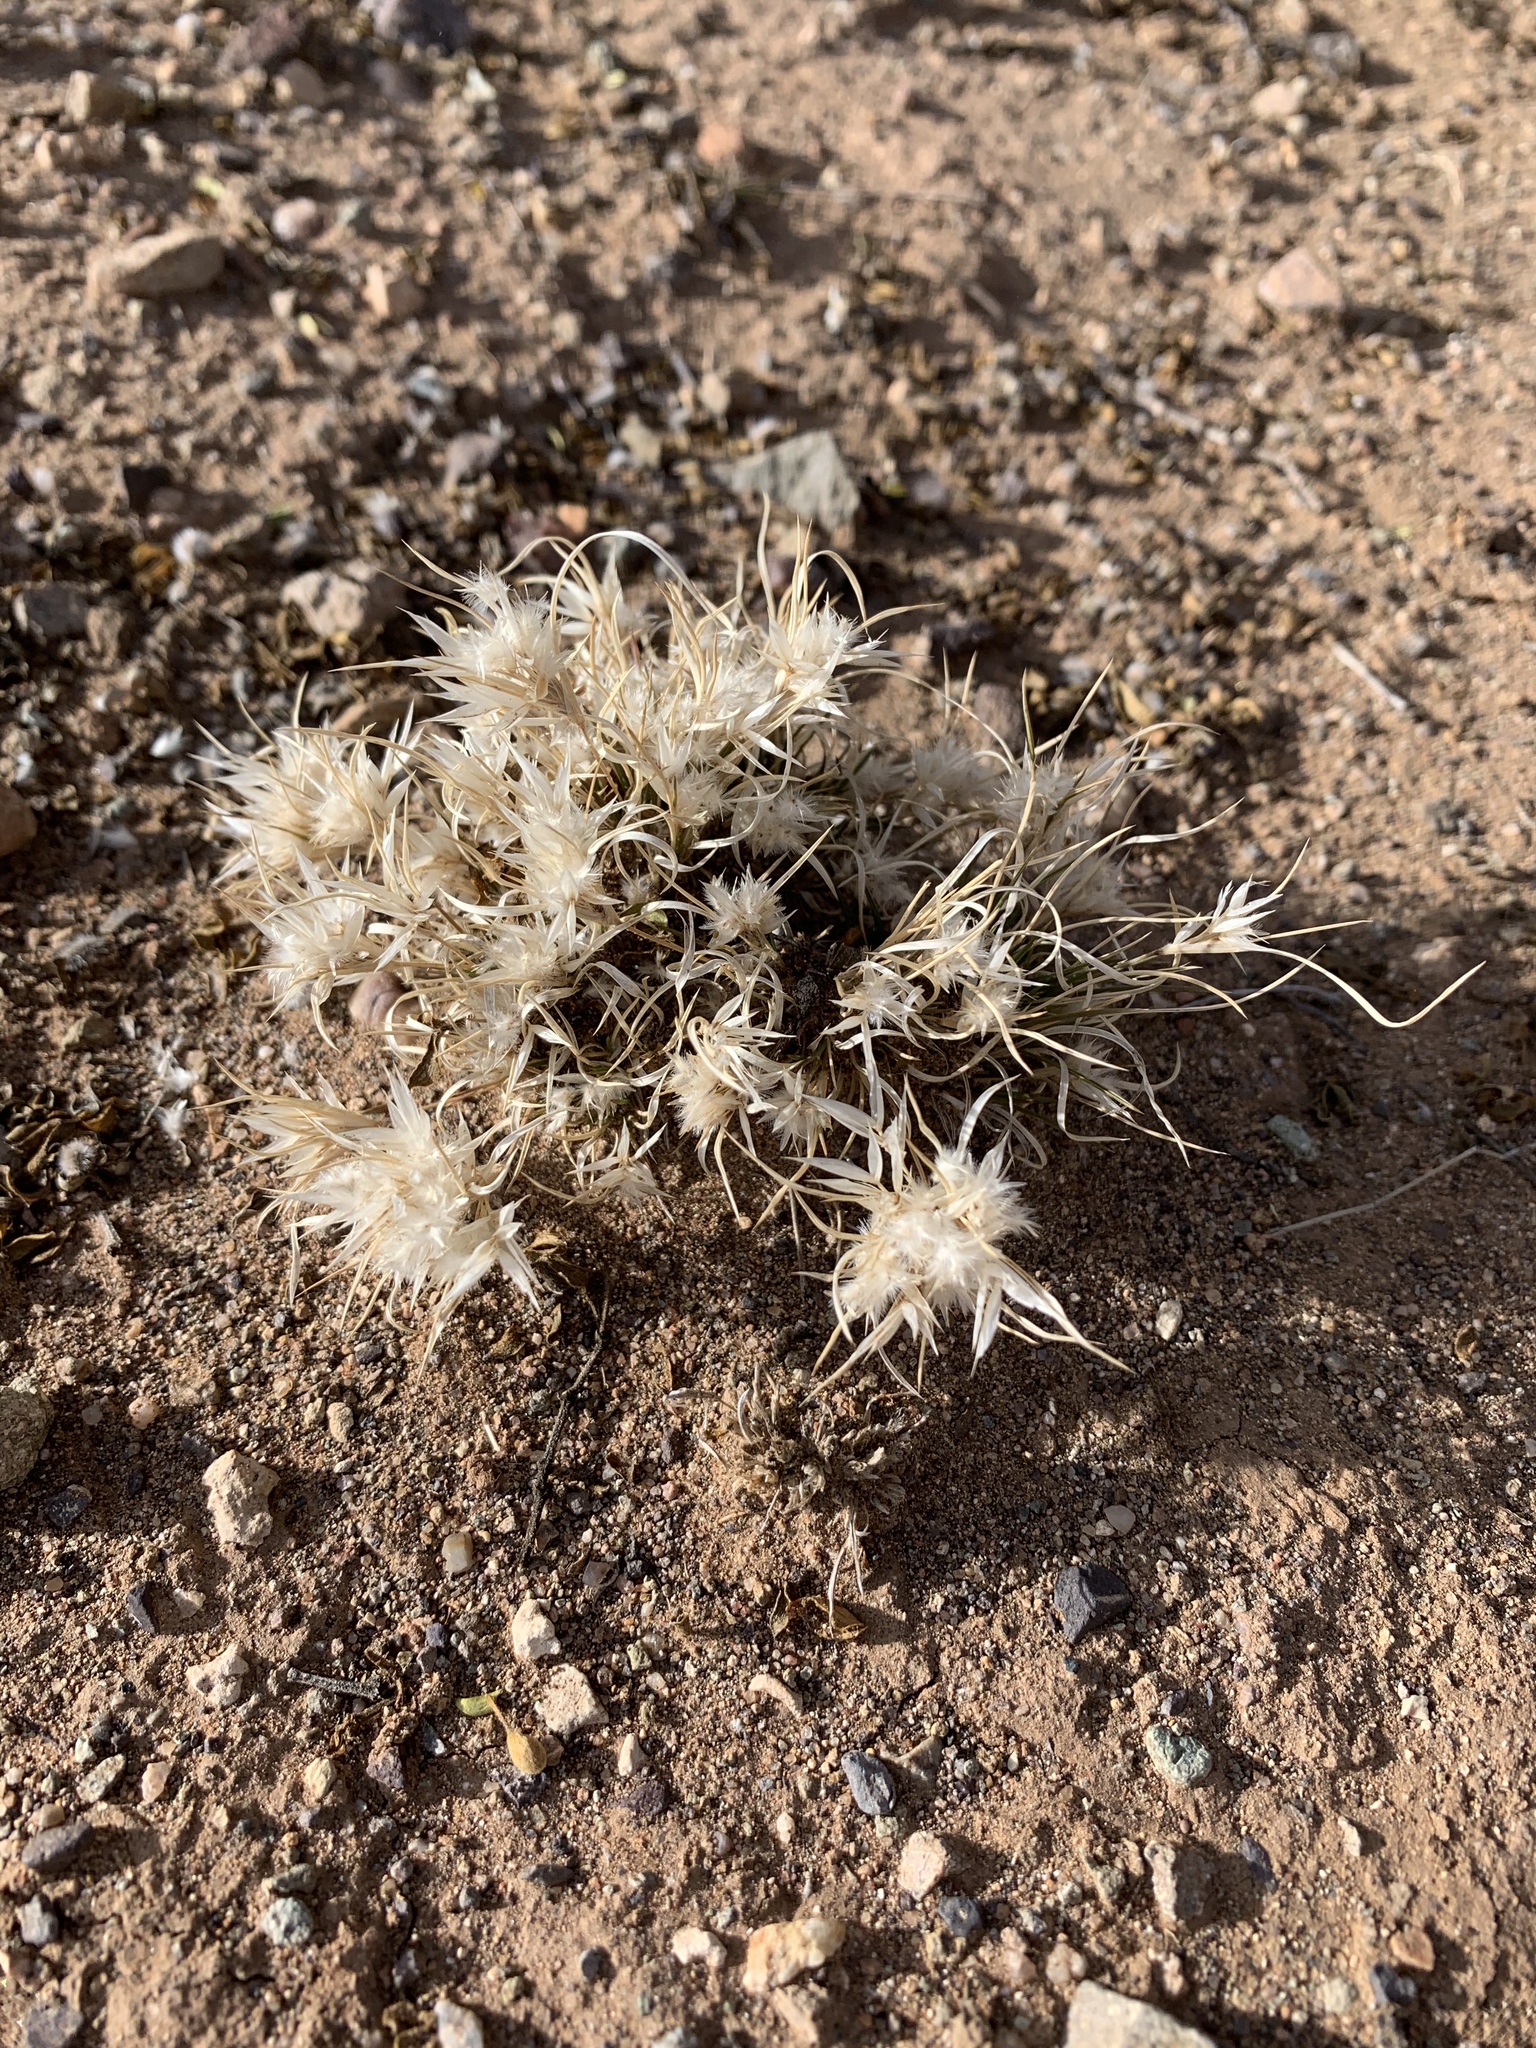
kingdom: Plantae
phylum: Tracheophyta
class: Liliopsida
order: Poales
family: Poaceae
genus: Dasyochloa
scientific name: Dasyochloa pulchella
